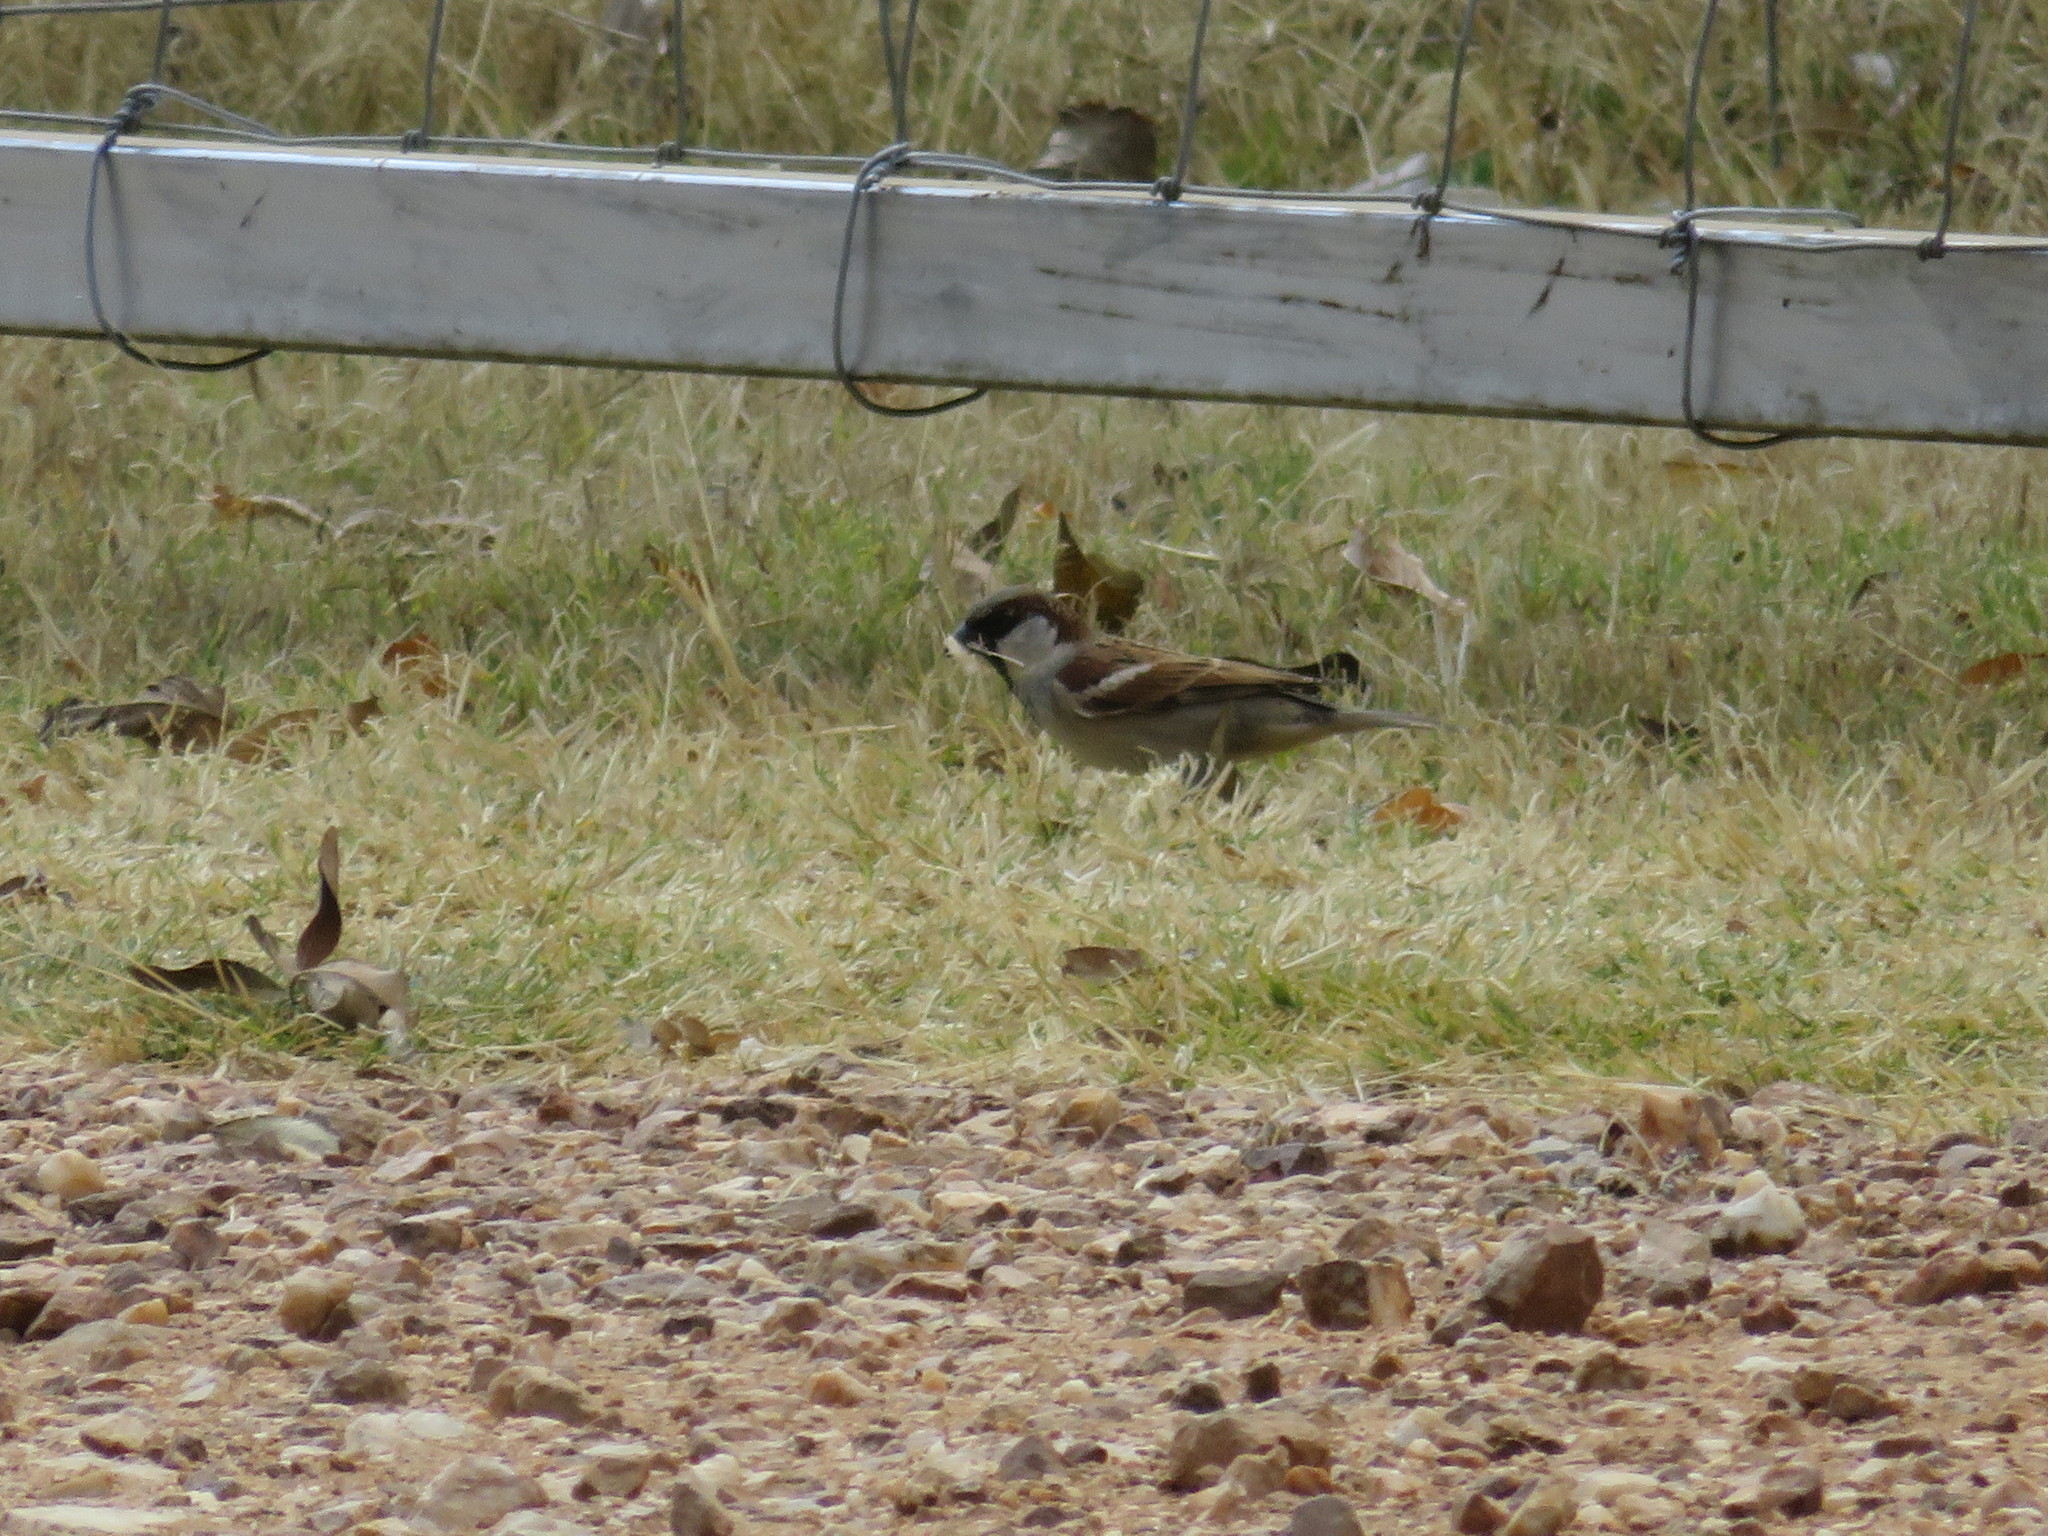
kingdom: Animalia
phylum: Chordata
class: Aves
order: Passeriformes
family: Passeridae
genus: Passer
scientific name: Passer domesticus
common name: House sparrow
